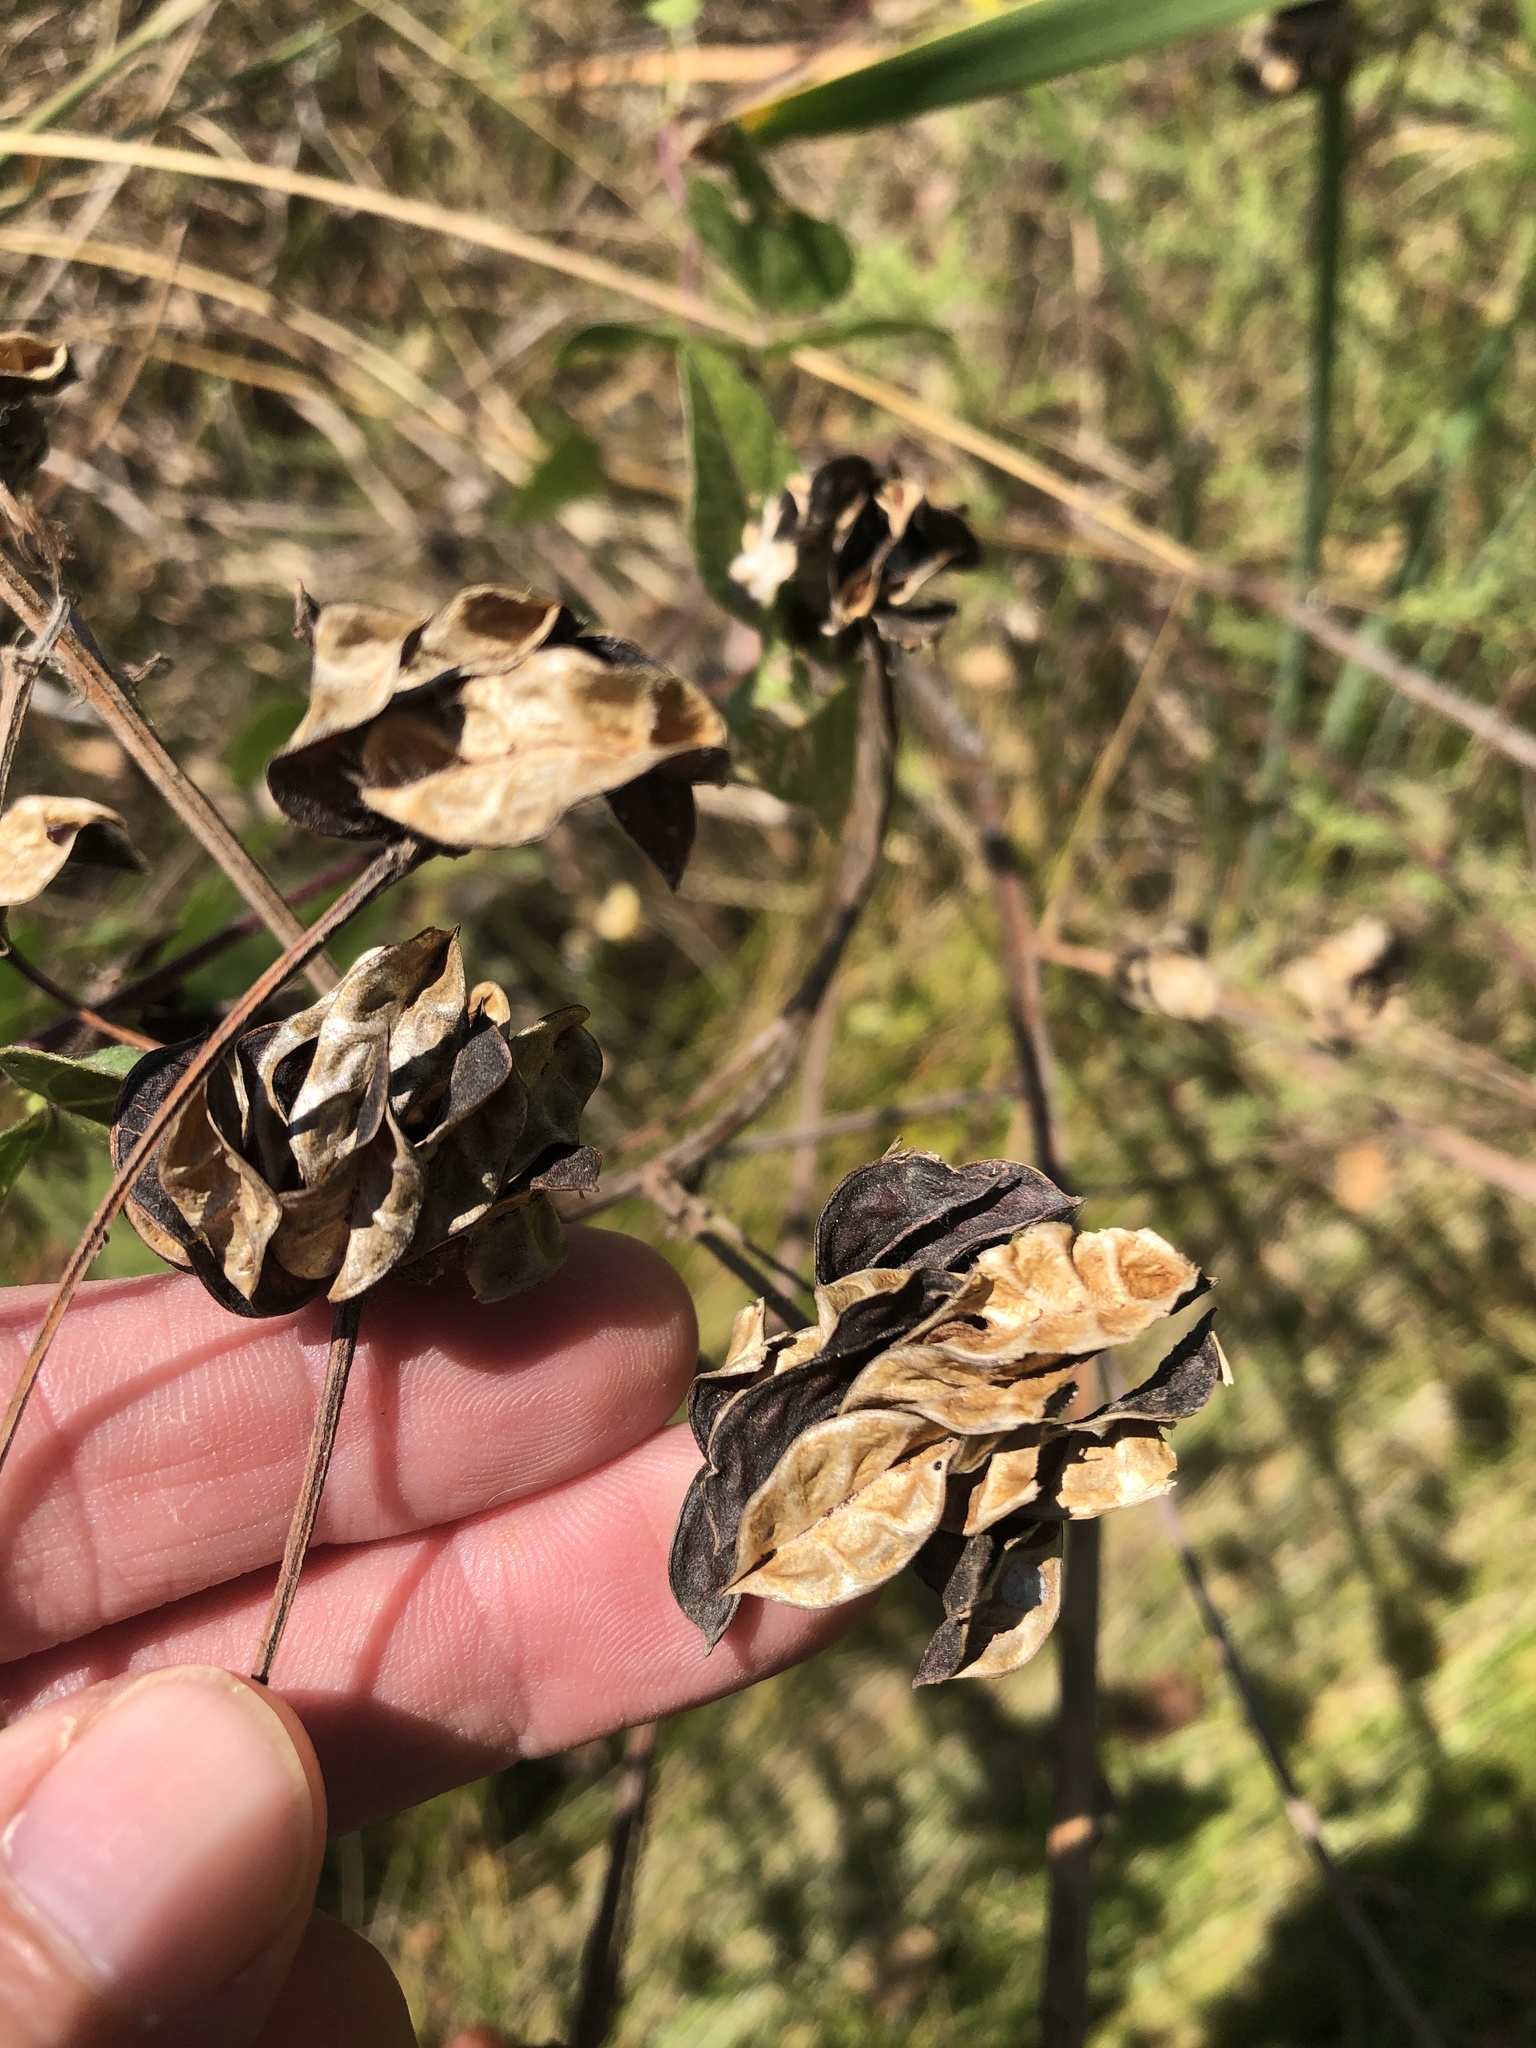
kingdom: Plantae
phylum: Tracheophyta
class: Magnoliopsida
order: Fabales
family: Fabaceae
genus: Desmanthus
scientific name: Desmanthus illinoensis
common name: Illinois bundle-flower
